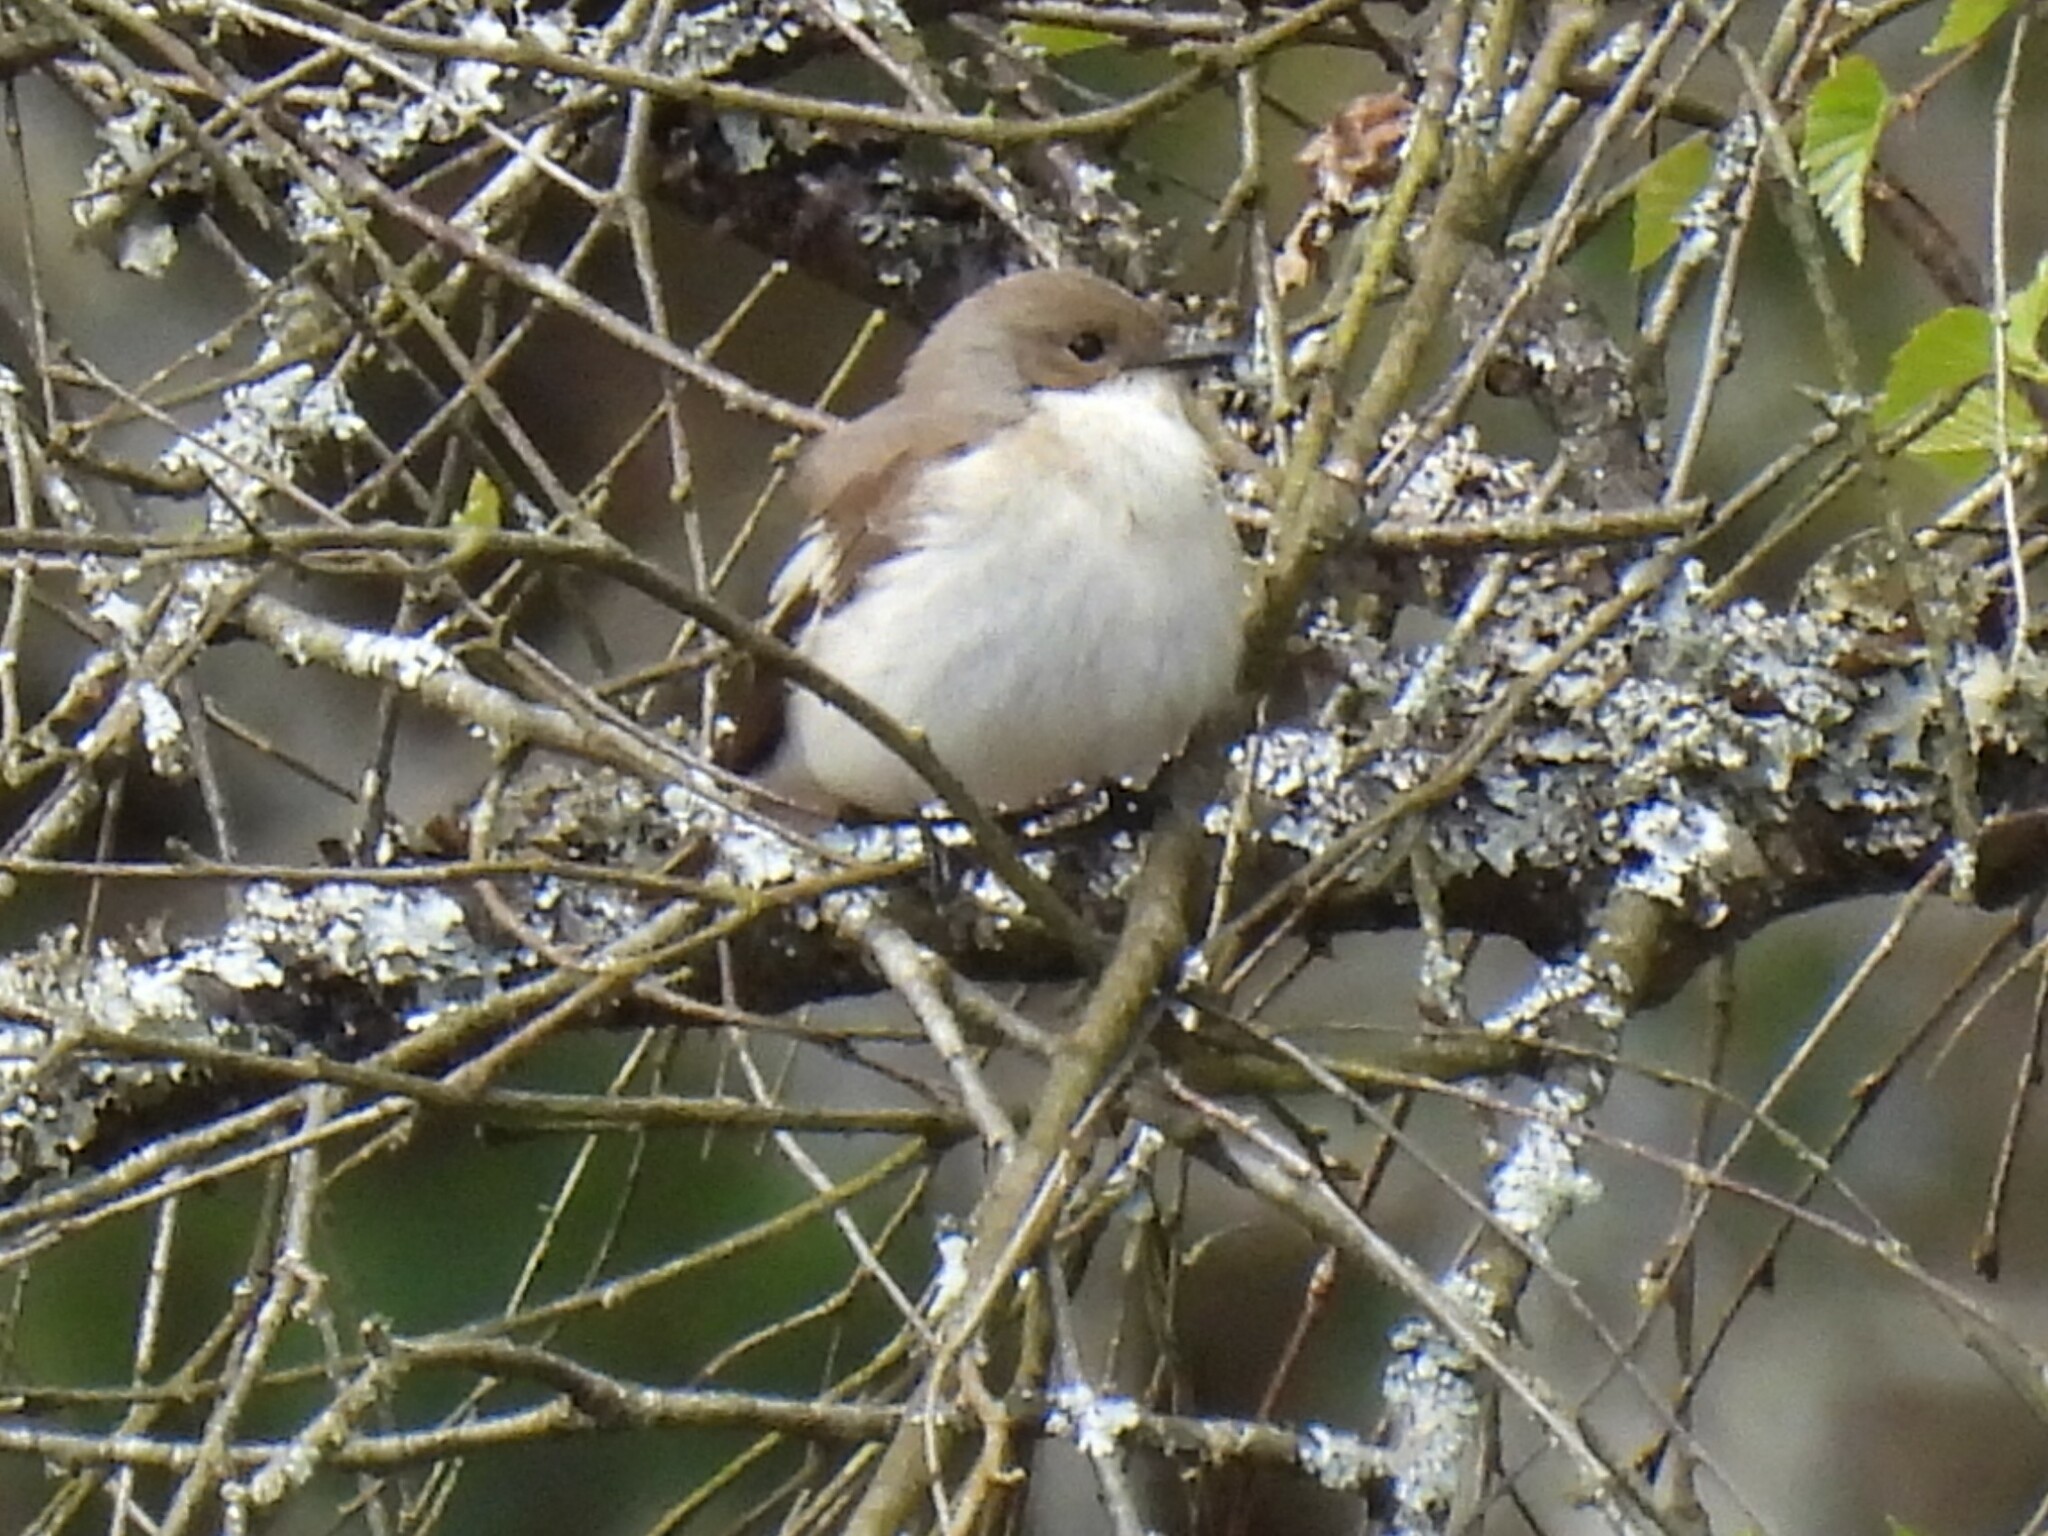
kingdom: Animalia
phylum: Chordata
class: Aves
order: Passeriformes
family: Muscicapidae
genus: Ficedula
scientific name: Ficedula hypoleuca
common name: European pied flycatcher
